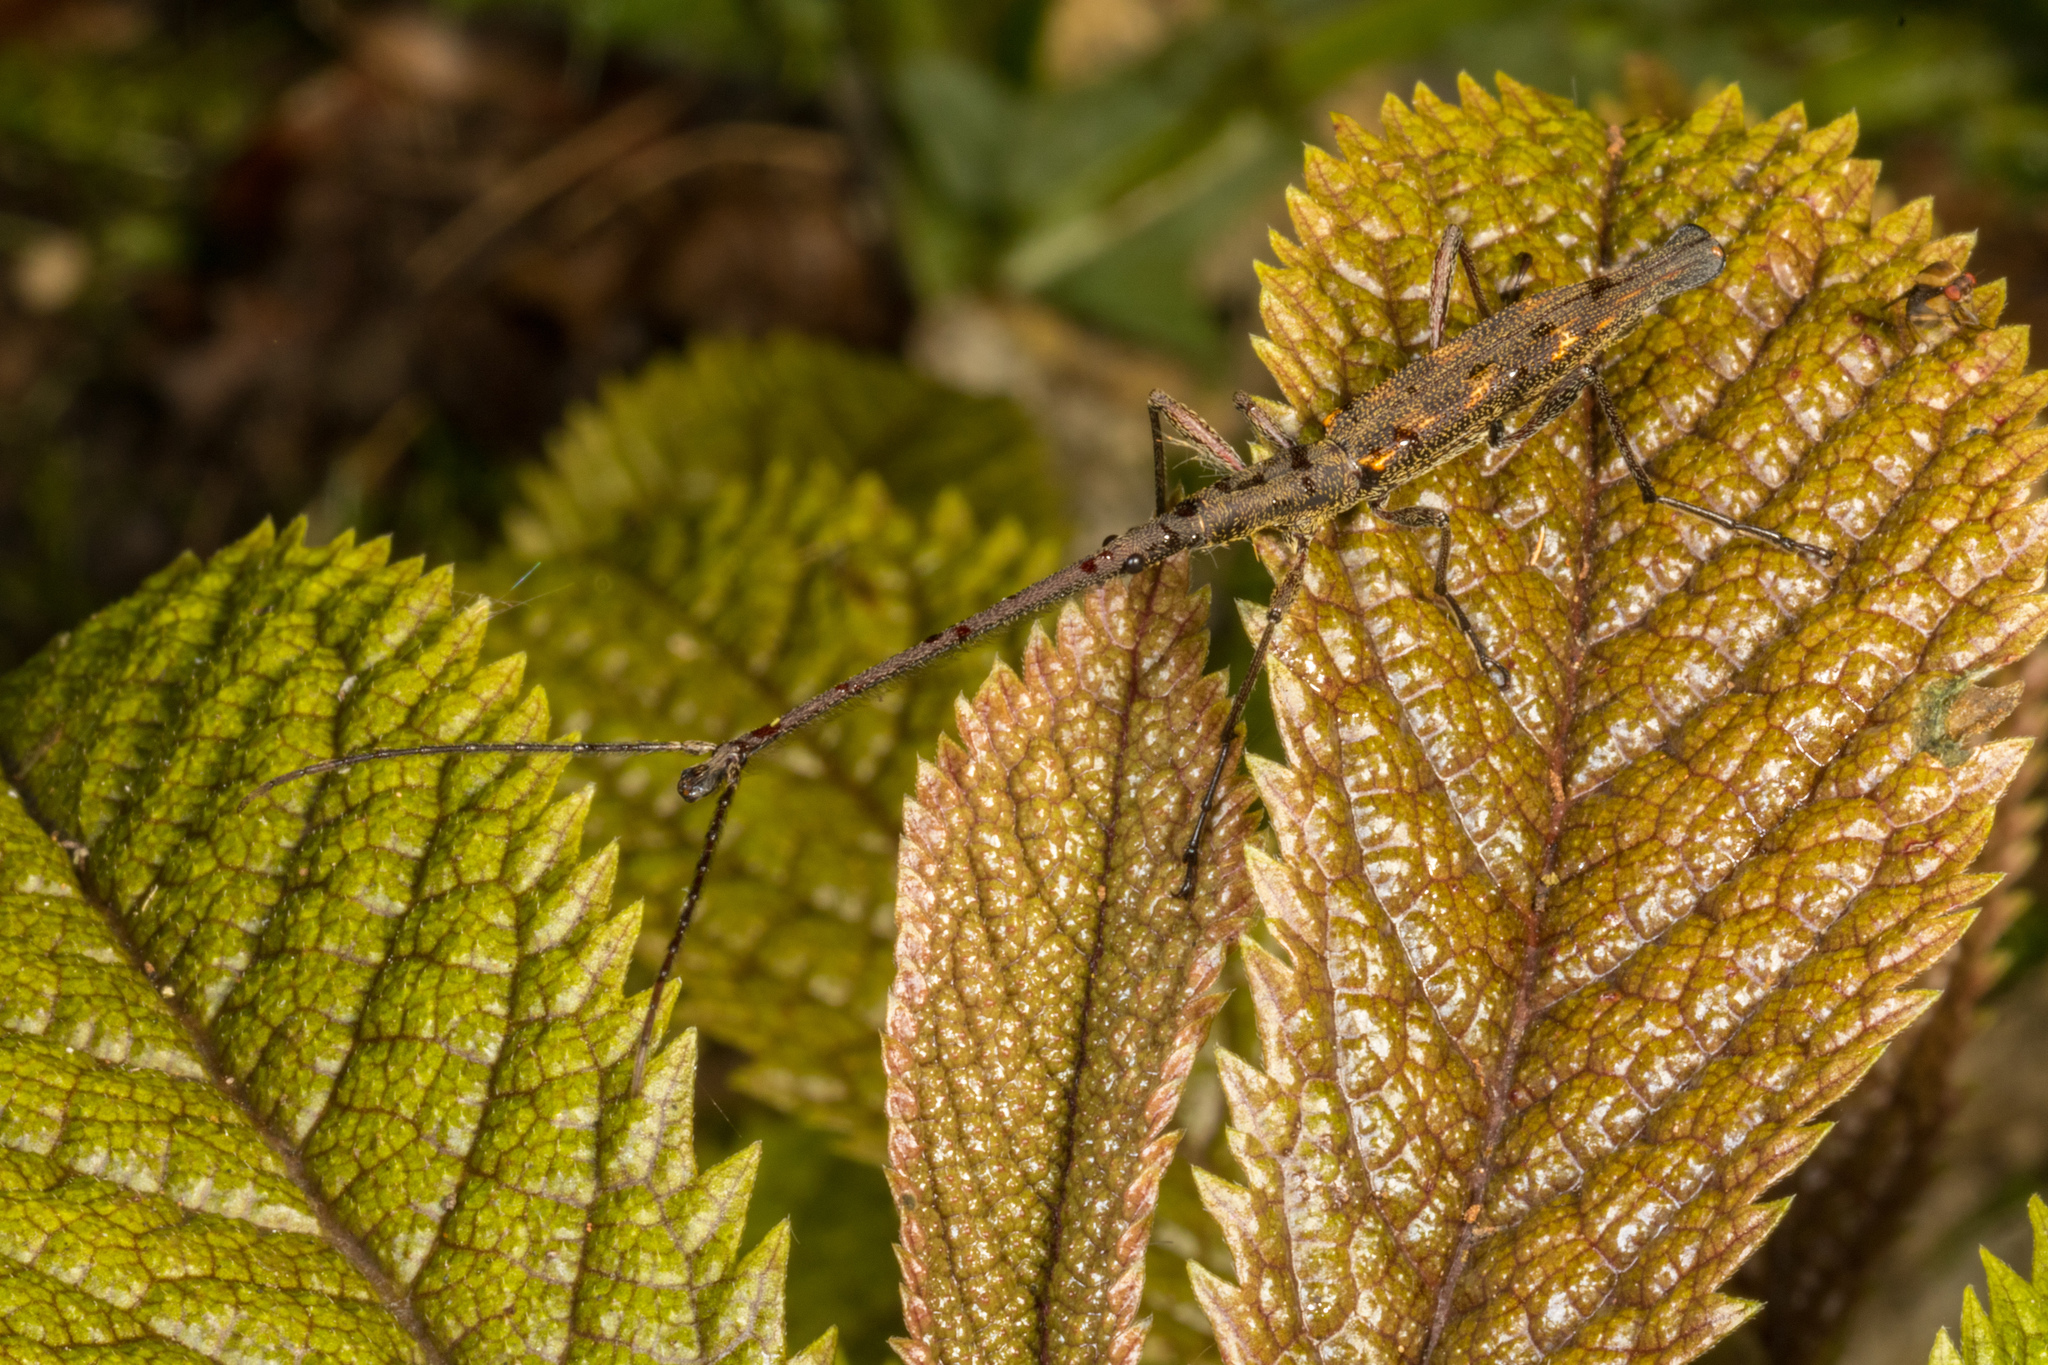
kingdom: Animalia
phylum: Arthropoda
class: Insecta
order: Coleoptera
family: Brentidae
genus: Lasiorhynchus
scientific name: Lasiorhynchus barbicornis
